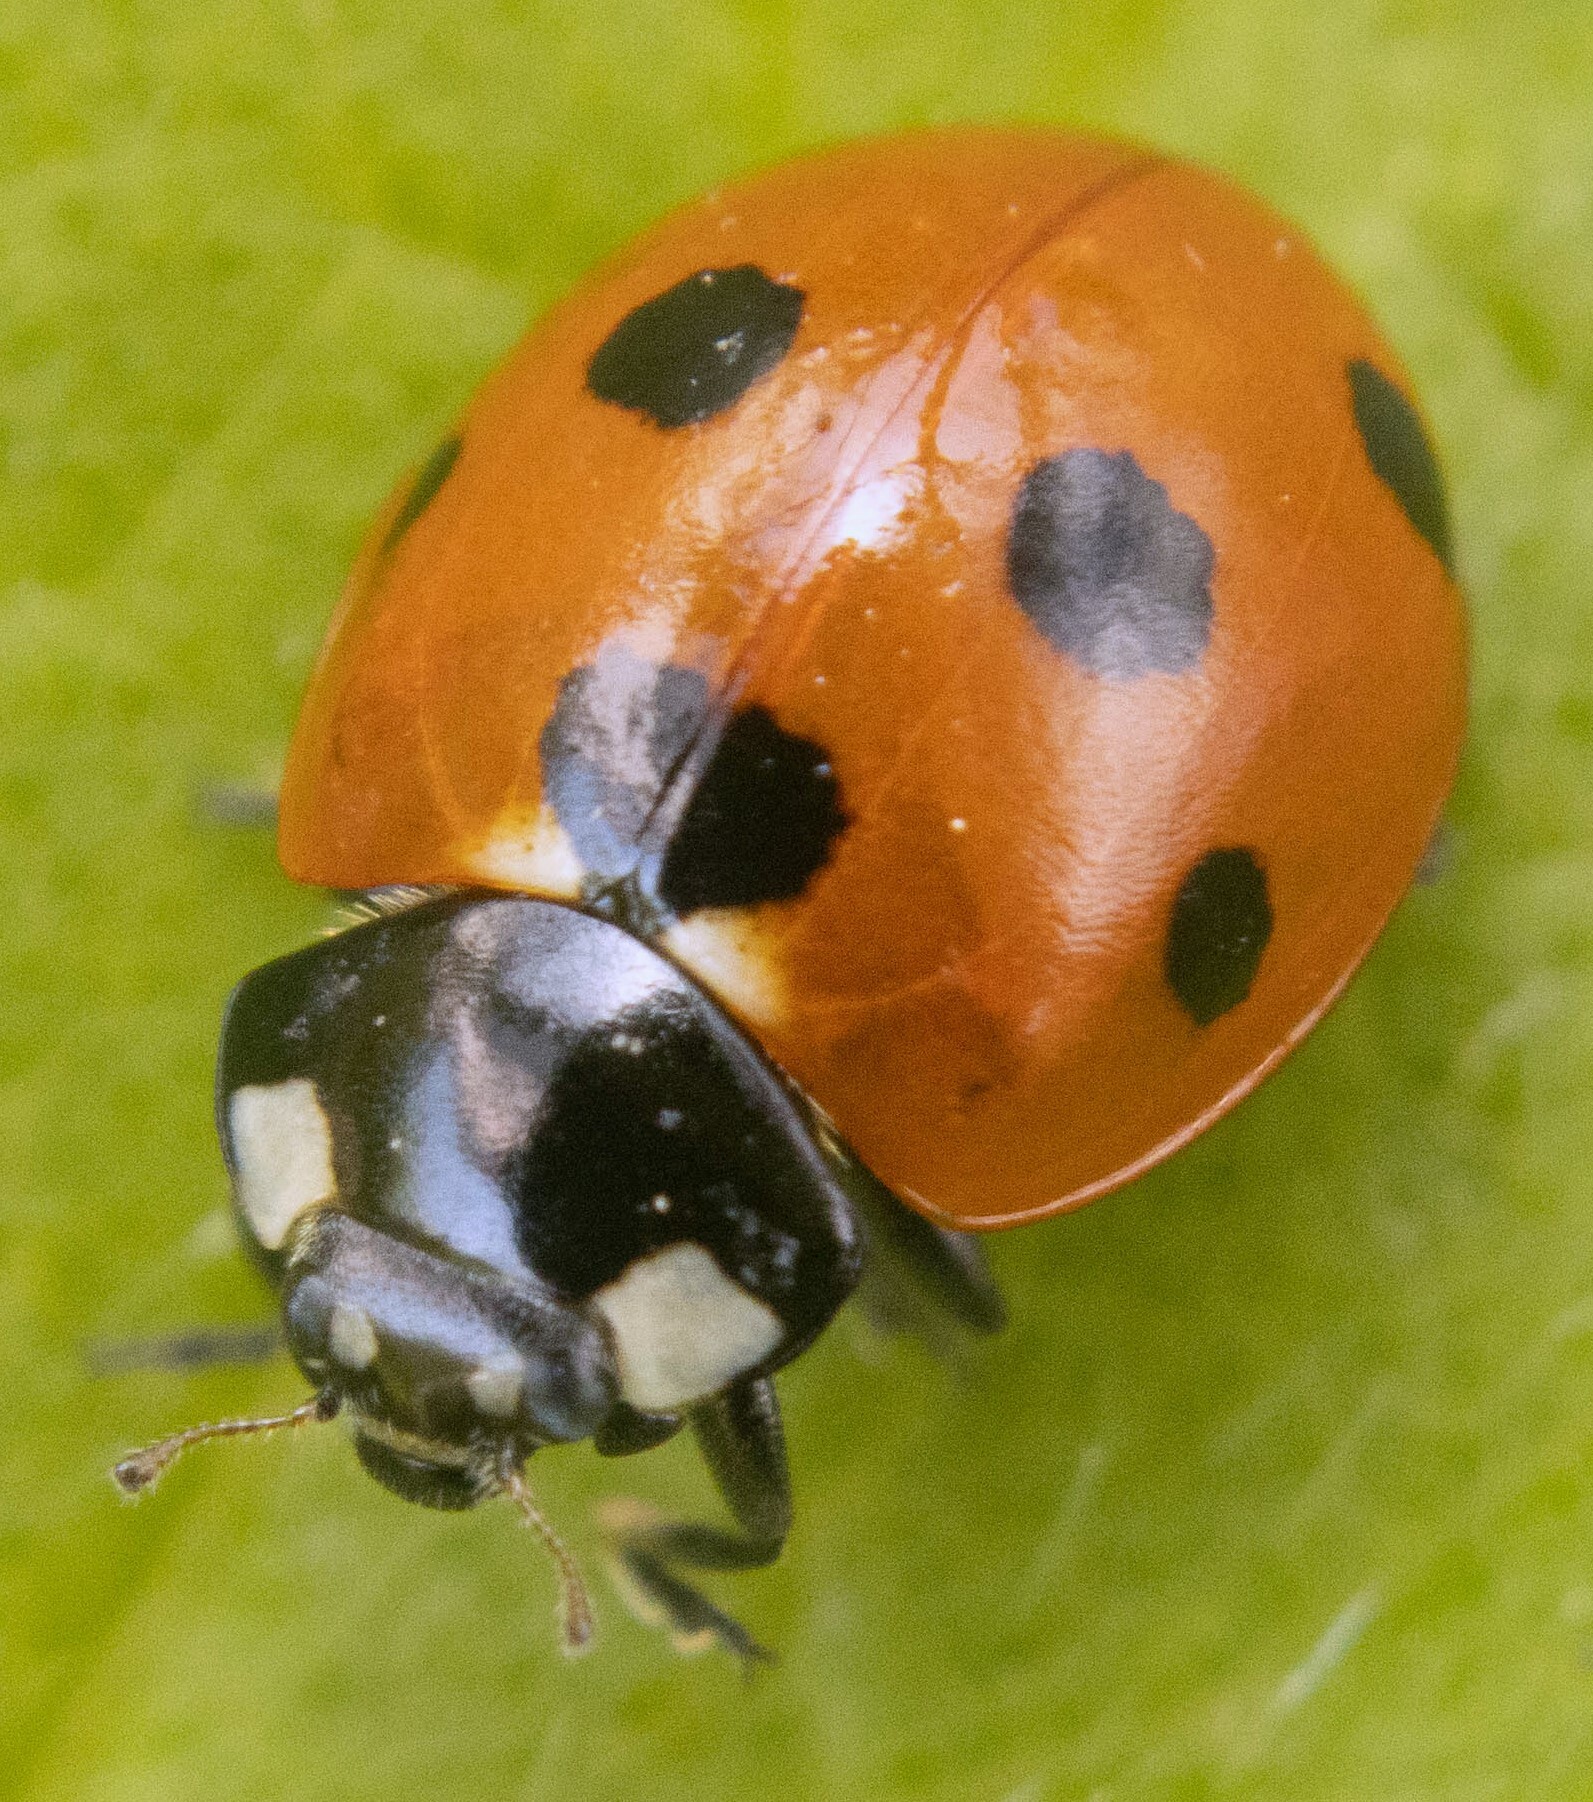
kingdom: Animalia
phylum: Arthropoda
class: Insecta
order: Coleoptera
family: Coccinellidae
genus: Coccinella
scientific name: Coccinella septempunctata
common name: Sevenspotted lady beetle
